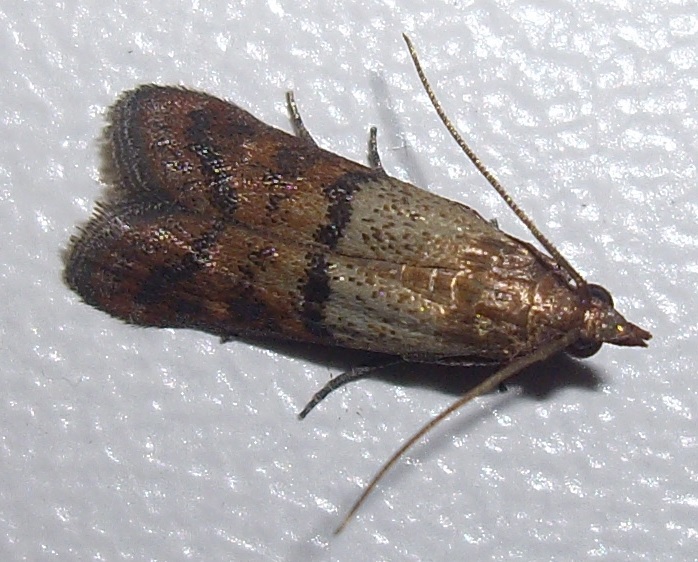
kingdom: Animalia
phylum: Arthropoda
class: Insecta
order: Lepidoptera
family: Pyralidae
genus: Plodia
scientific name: Plodia interpunctella
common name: Indian meal moth
